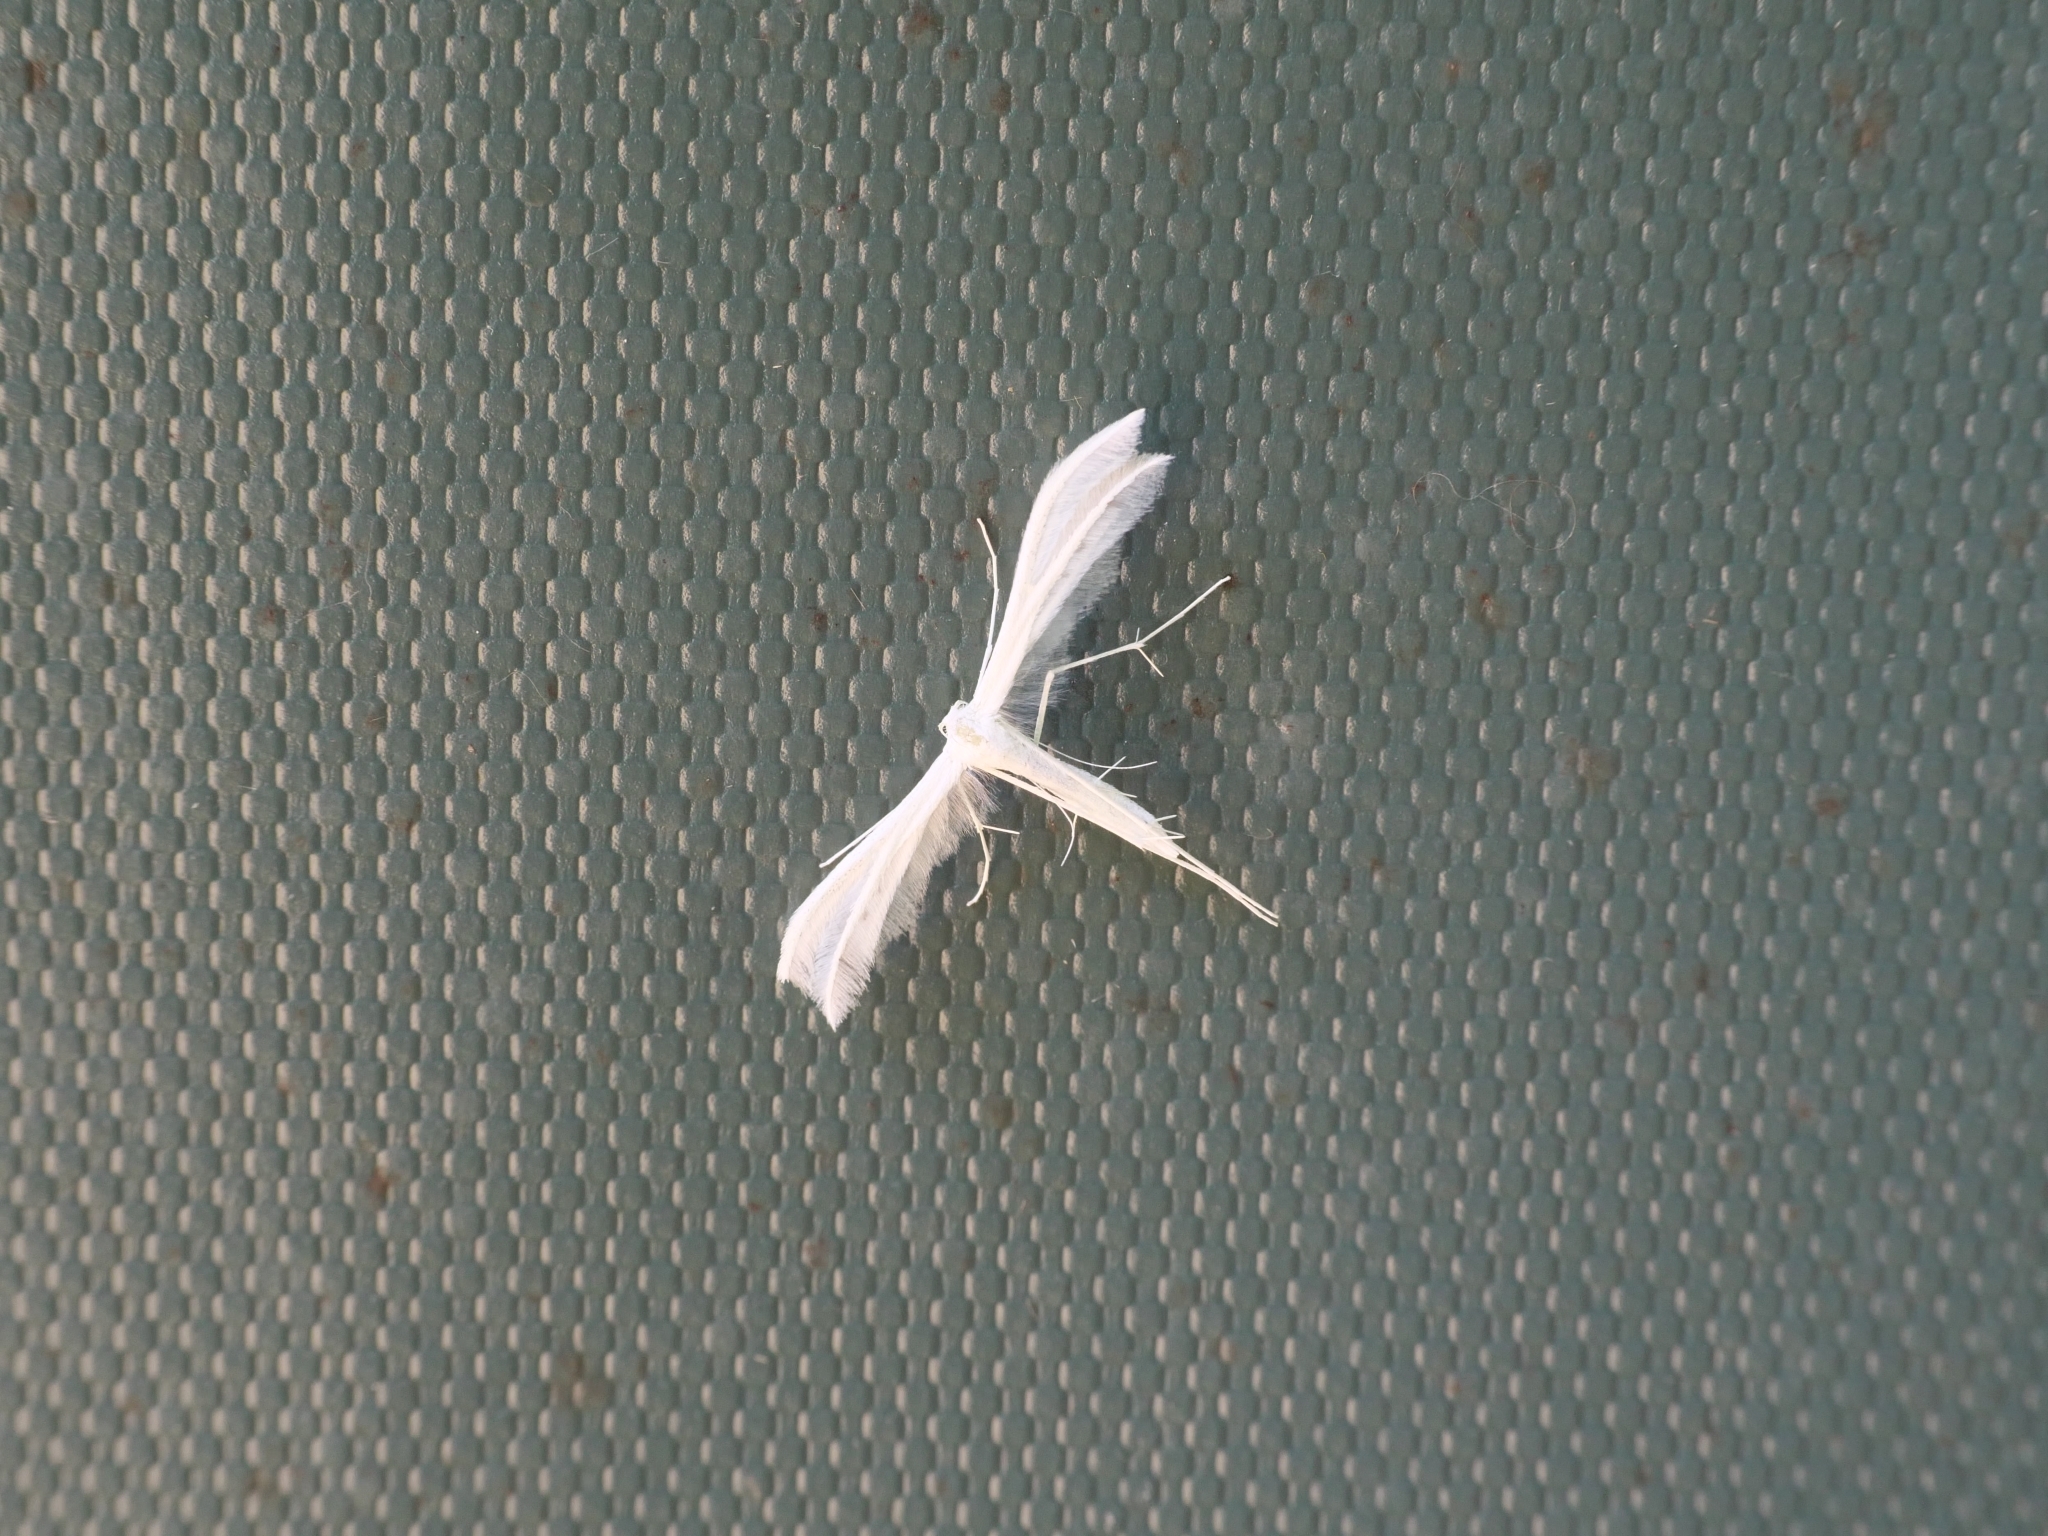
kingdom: Animalia
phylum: Arthropoda
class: Insecta
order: Lepidoptera
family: Pterophoridae
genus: Pterophorus
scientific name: Pterophorus pentadactyla
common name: White plume moth
